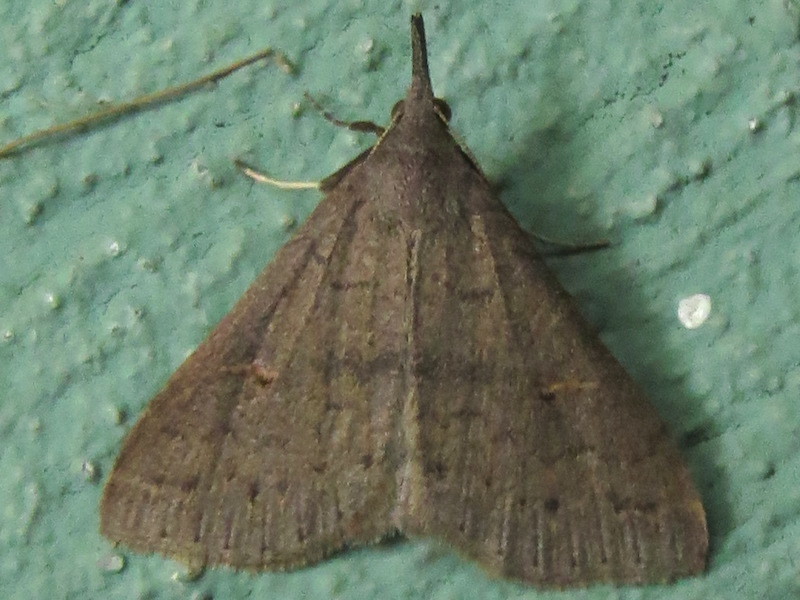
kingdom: Animalia
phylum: Arthropoda
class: Insecta
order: Lepidoptera
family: Erebidae
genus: Renia
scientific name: Renia adspergillus
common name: Speckled renia moth
